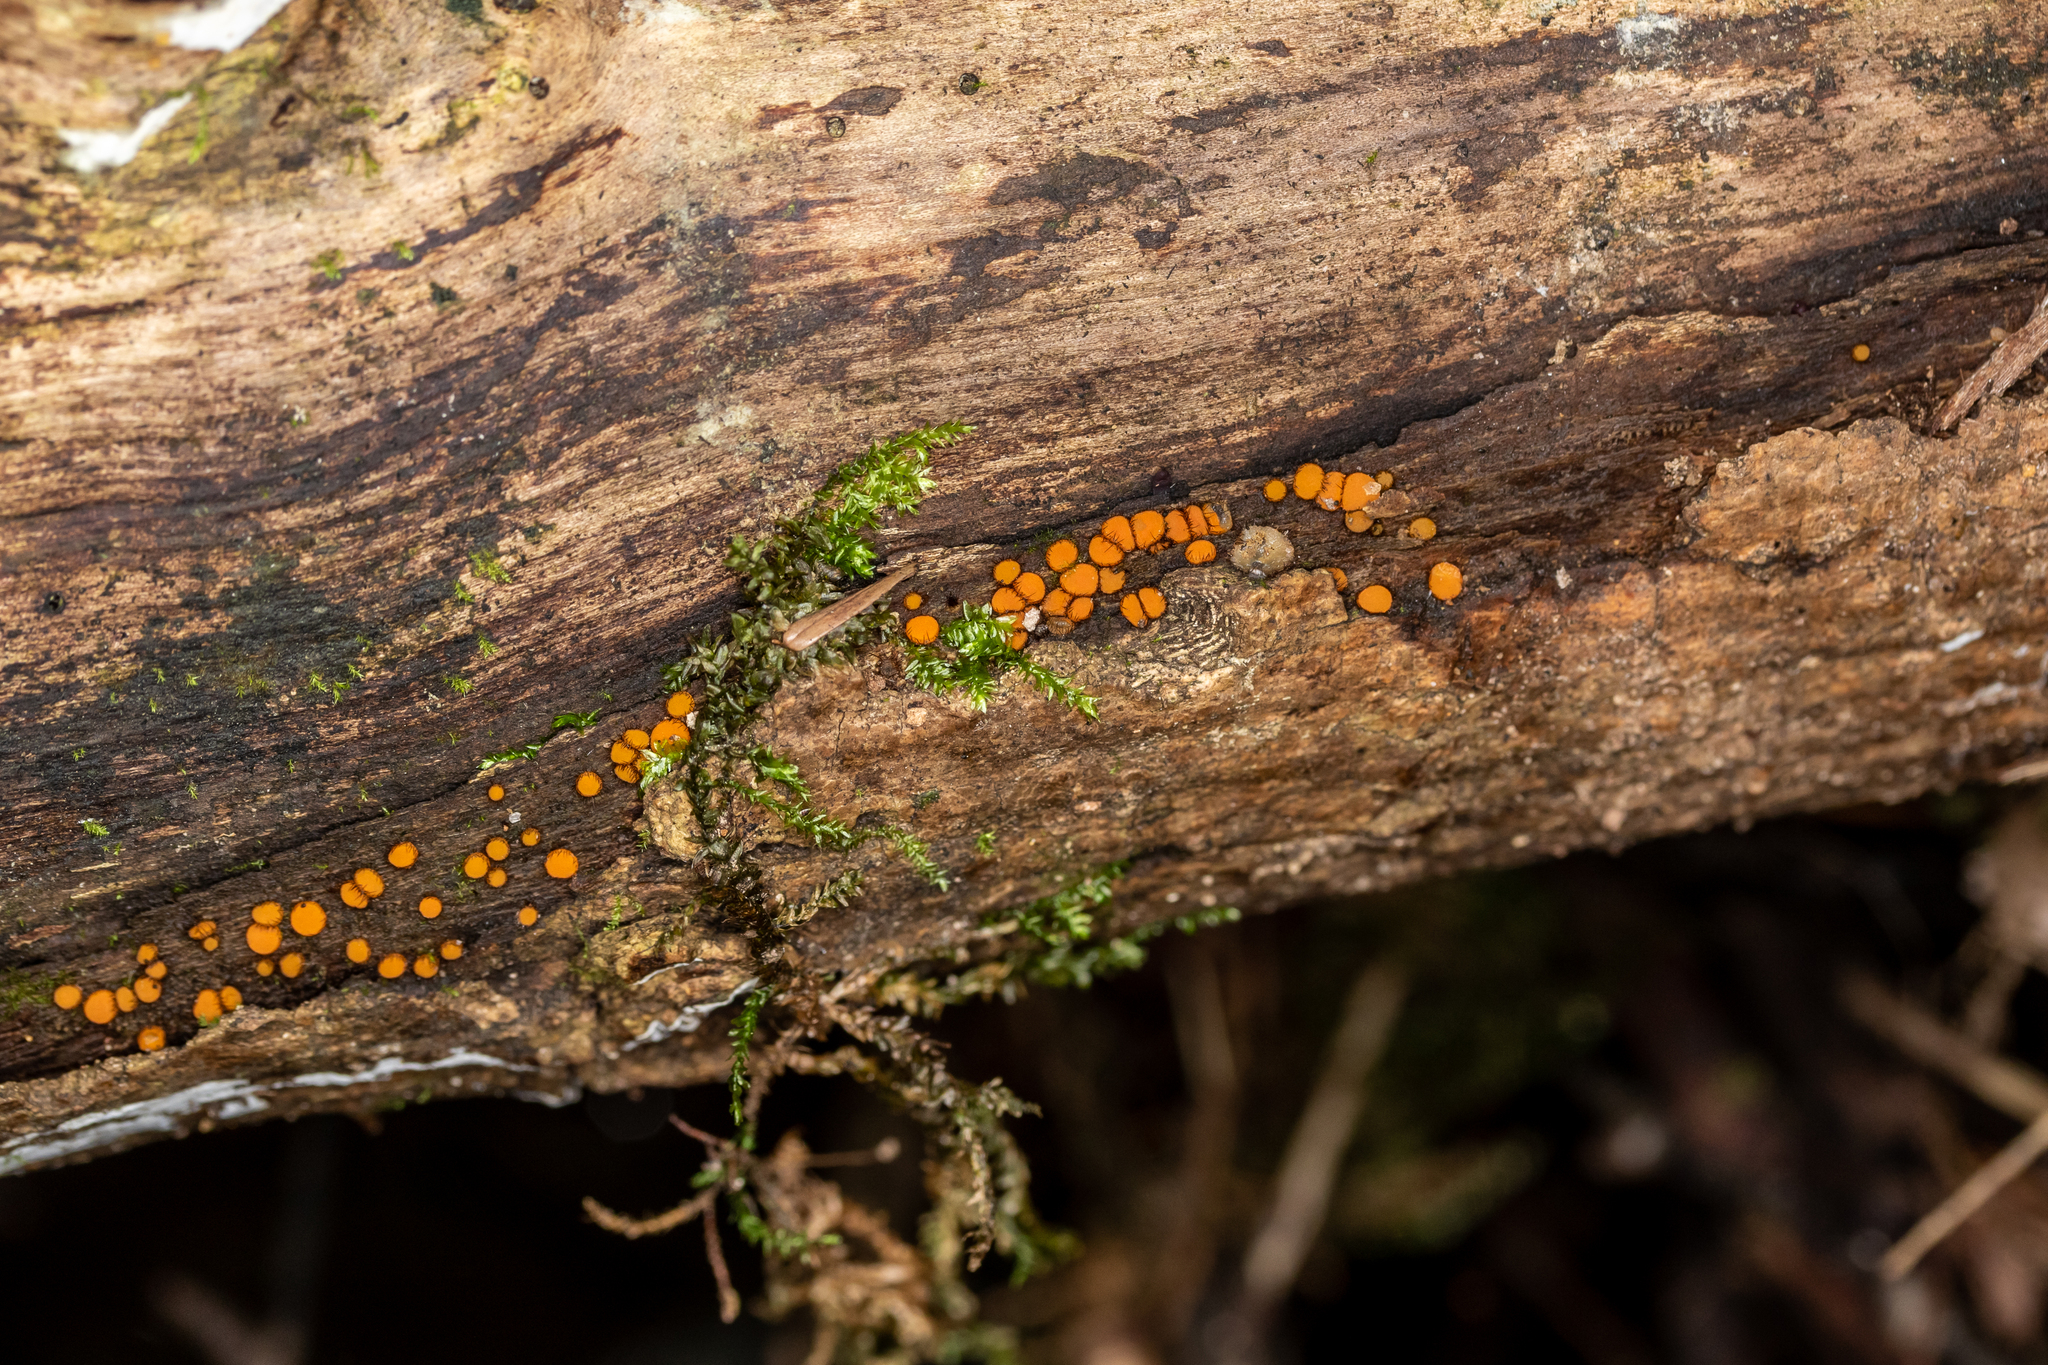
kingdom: Fungi
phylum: Ascomycota
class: Pezizomycetes
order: Pezizales
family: Pyronemataceae
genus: Scutellinia
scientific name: Scutellinia setosa
